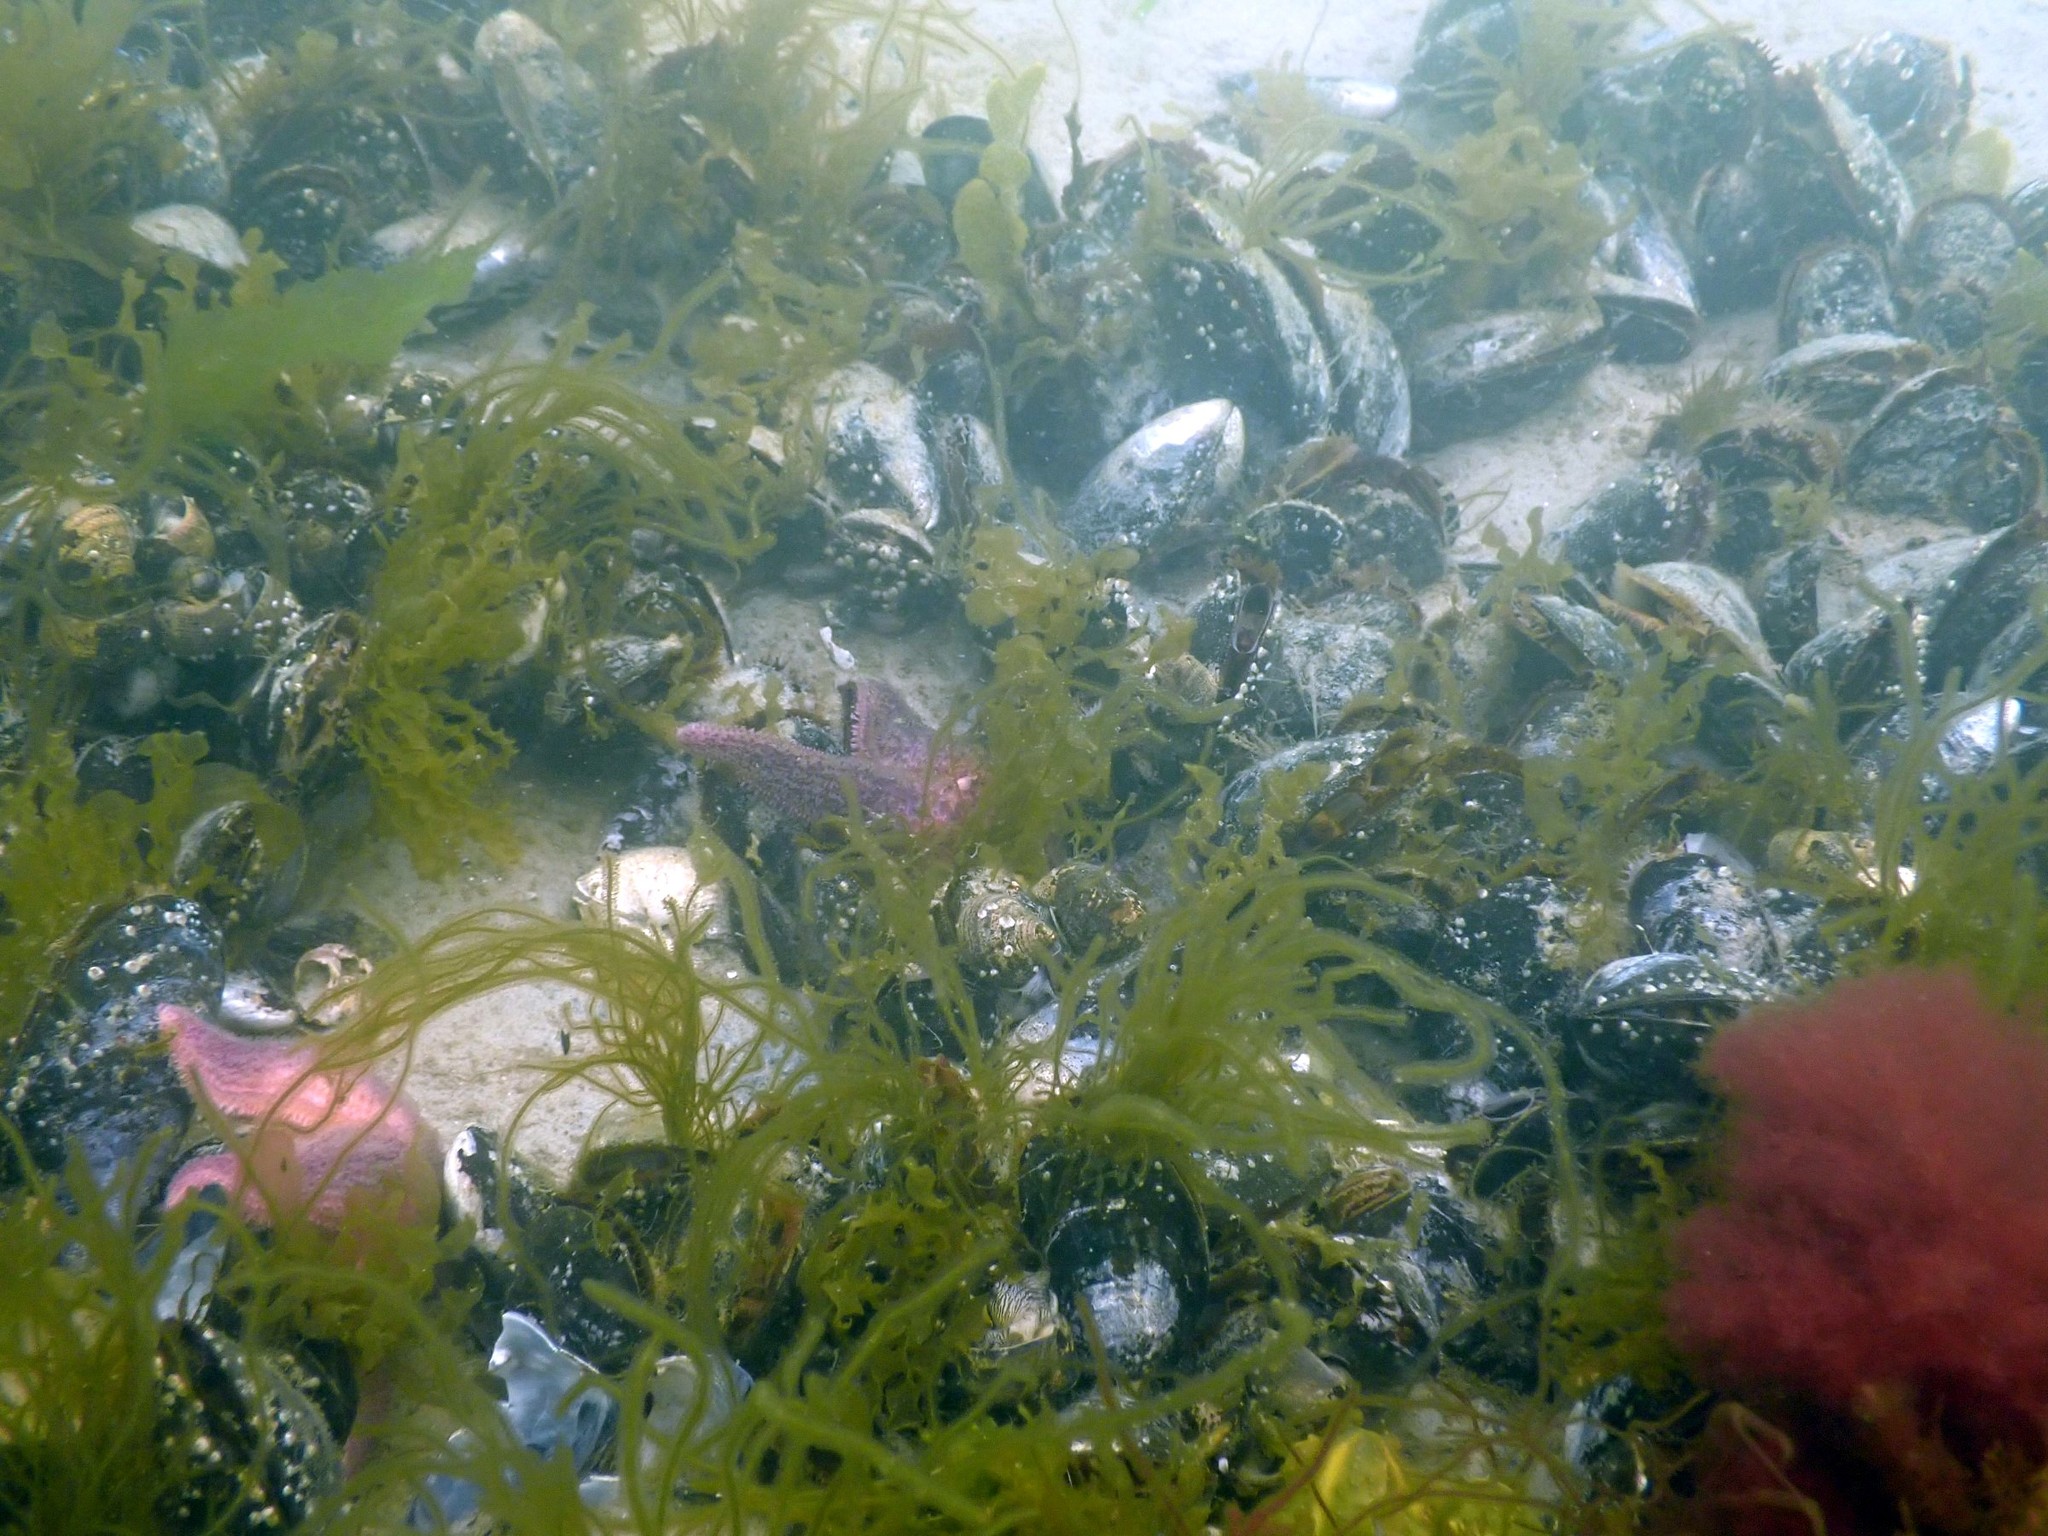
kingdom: Animalia
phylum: Mollusca
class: Bivalvia
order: Mytilida
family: Mytilidae
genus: Mytilus
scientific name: Mytilus edulis
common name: Blue mussel
